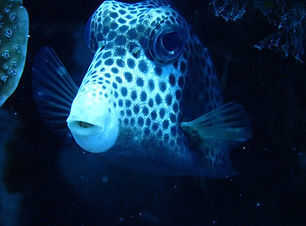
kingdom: Animalia
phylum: Chordata
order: Tetraodontiformes
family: Ostraciidae
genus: Lactophrys
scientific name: Lactophrys bicaudalis
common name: Spotted trunkfish
